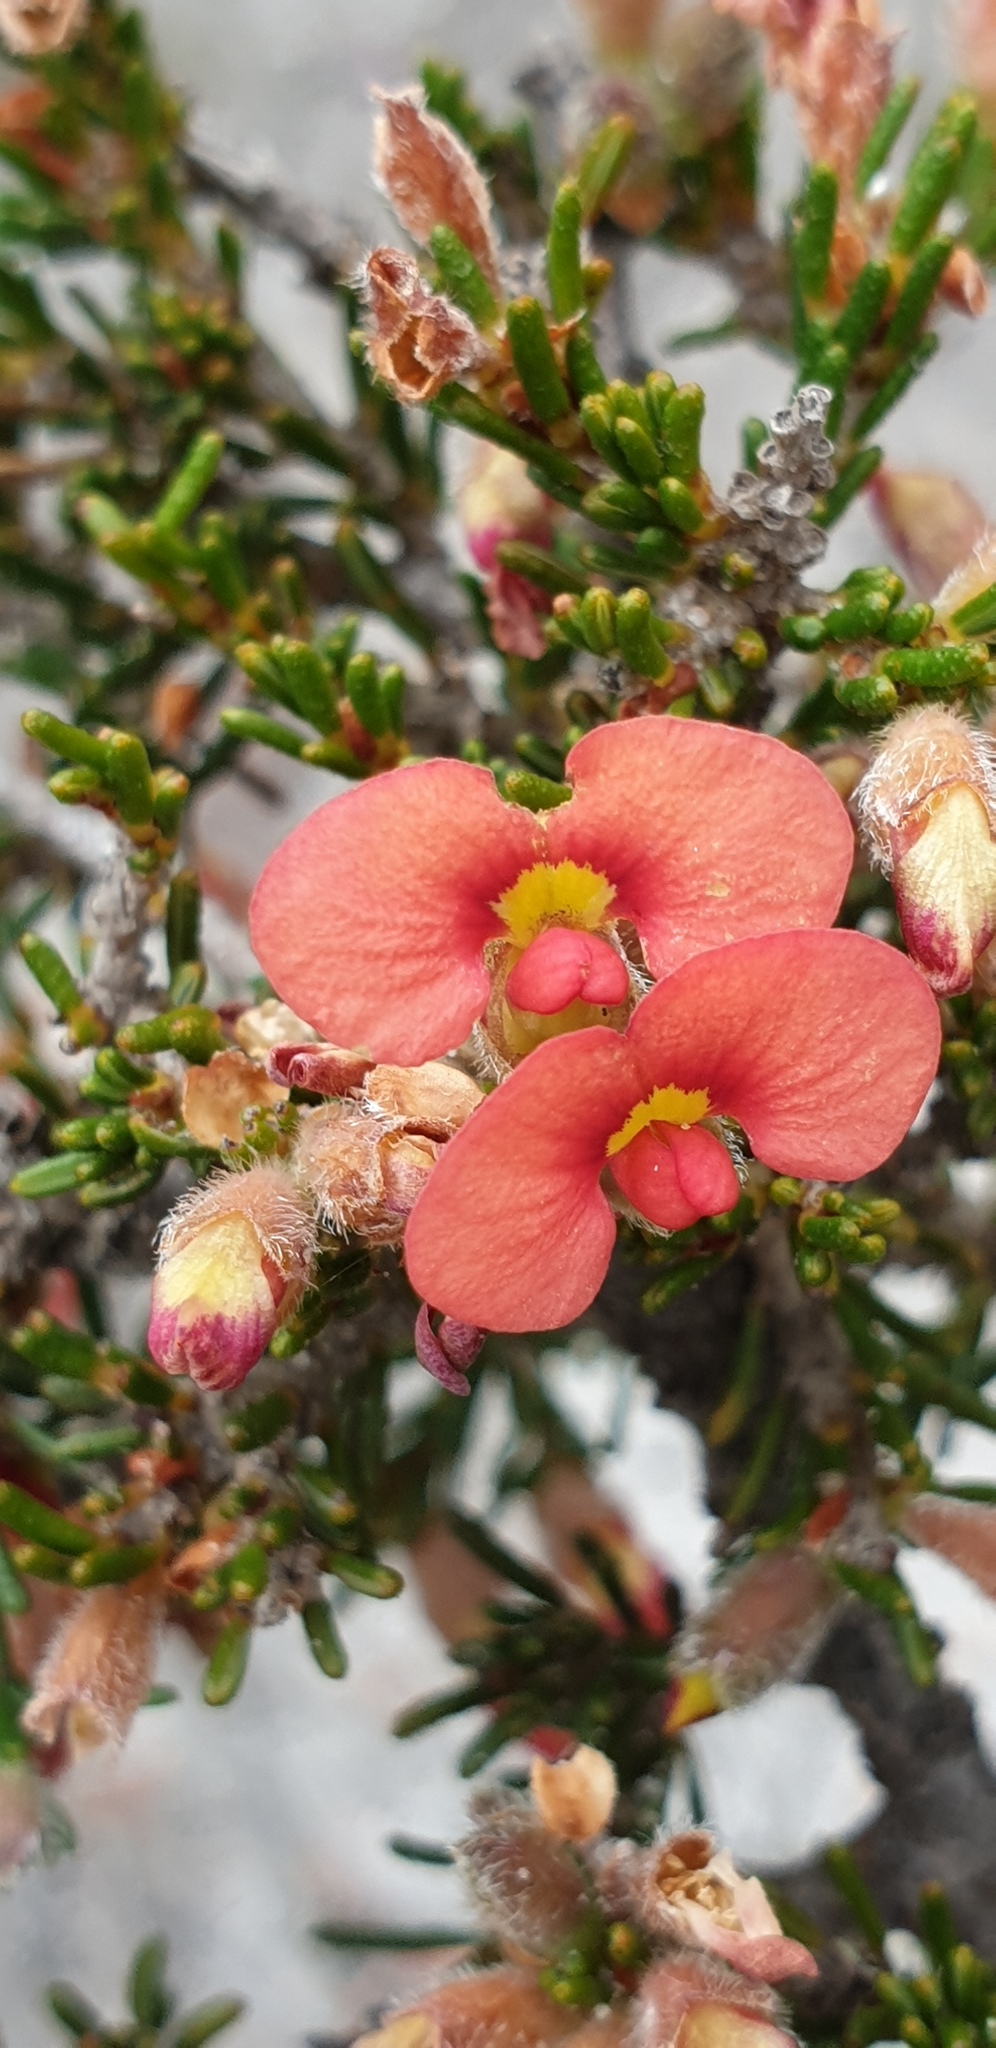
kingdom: Plantae
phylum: Tracheophyta
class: Magnoliopsida
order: Fabales
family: Fabaceae
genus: Dillwynia
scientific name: Dillwynia sericea
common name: Showy parrot-pea
